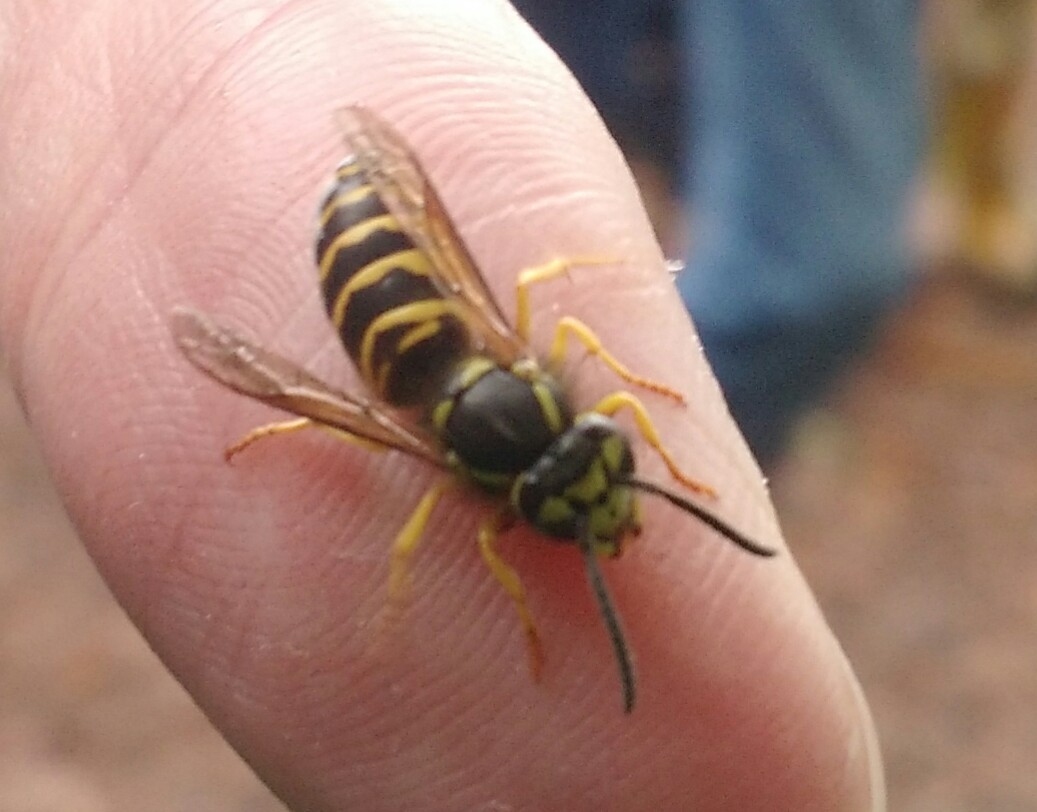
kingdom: Animalia
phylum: Arthropoda
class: Insecta
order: Hymenoptera
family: Vespidae
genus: Vespula
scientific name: Vespula maculifrons
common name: Eastern yellowjacket
